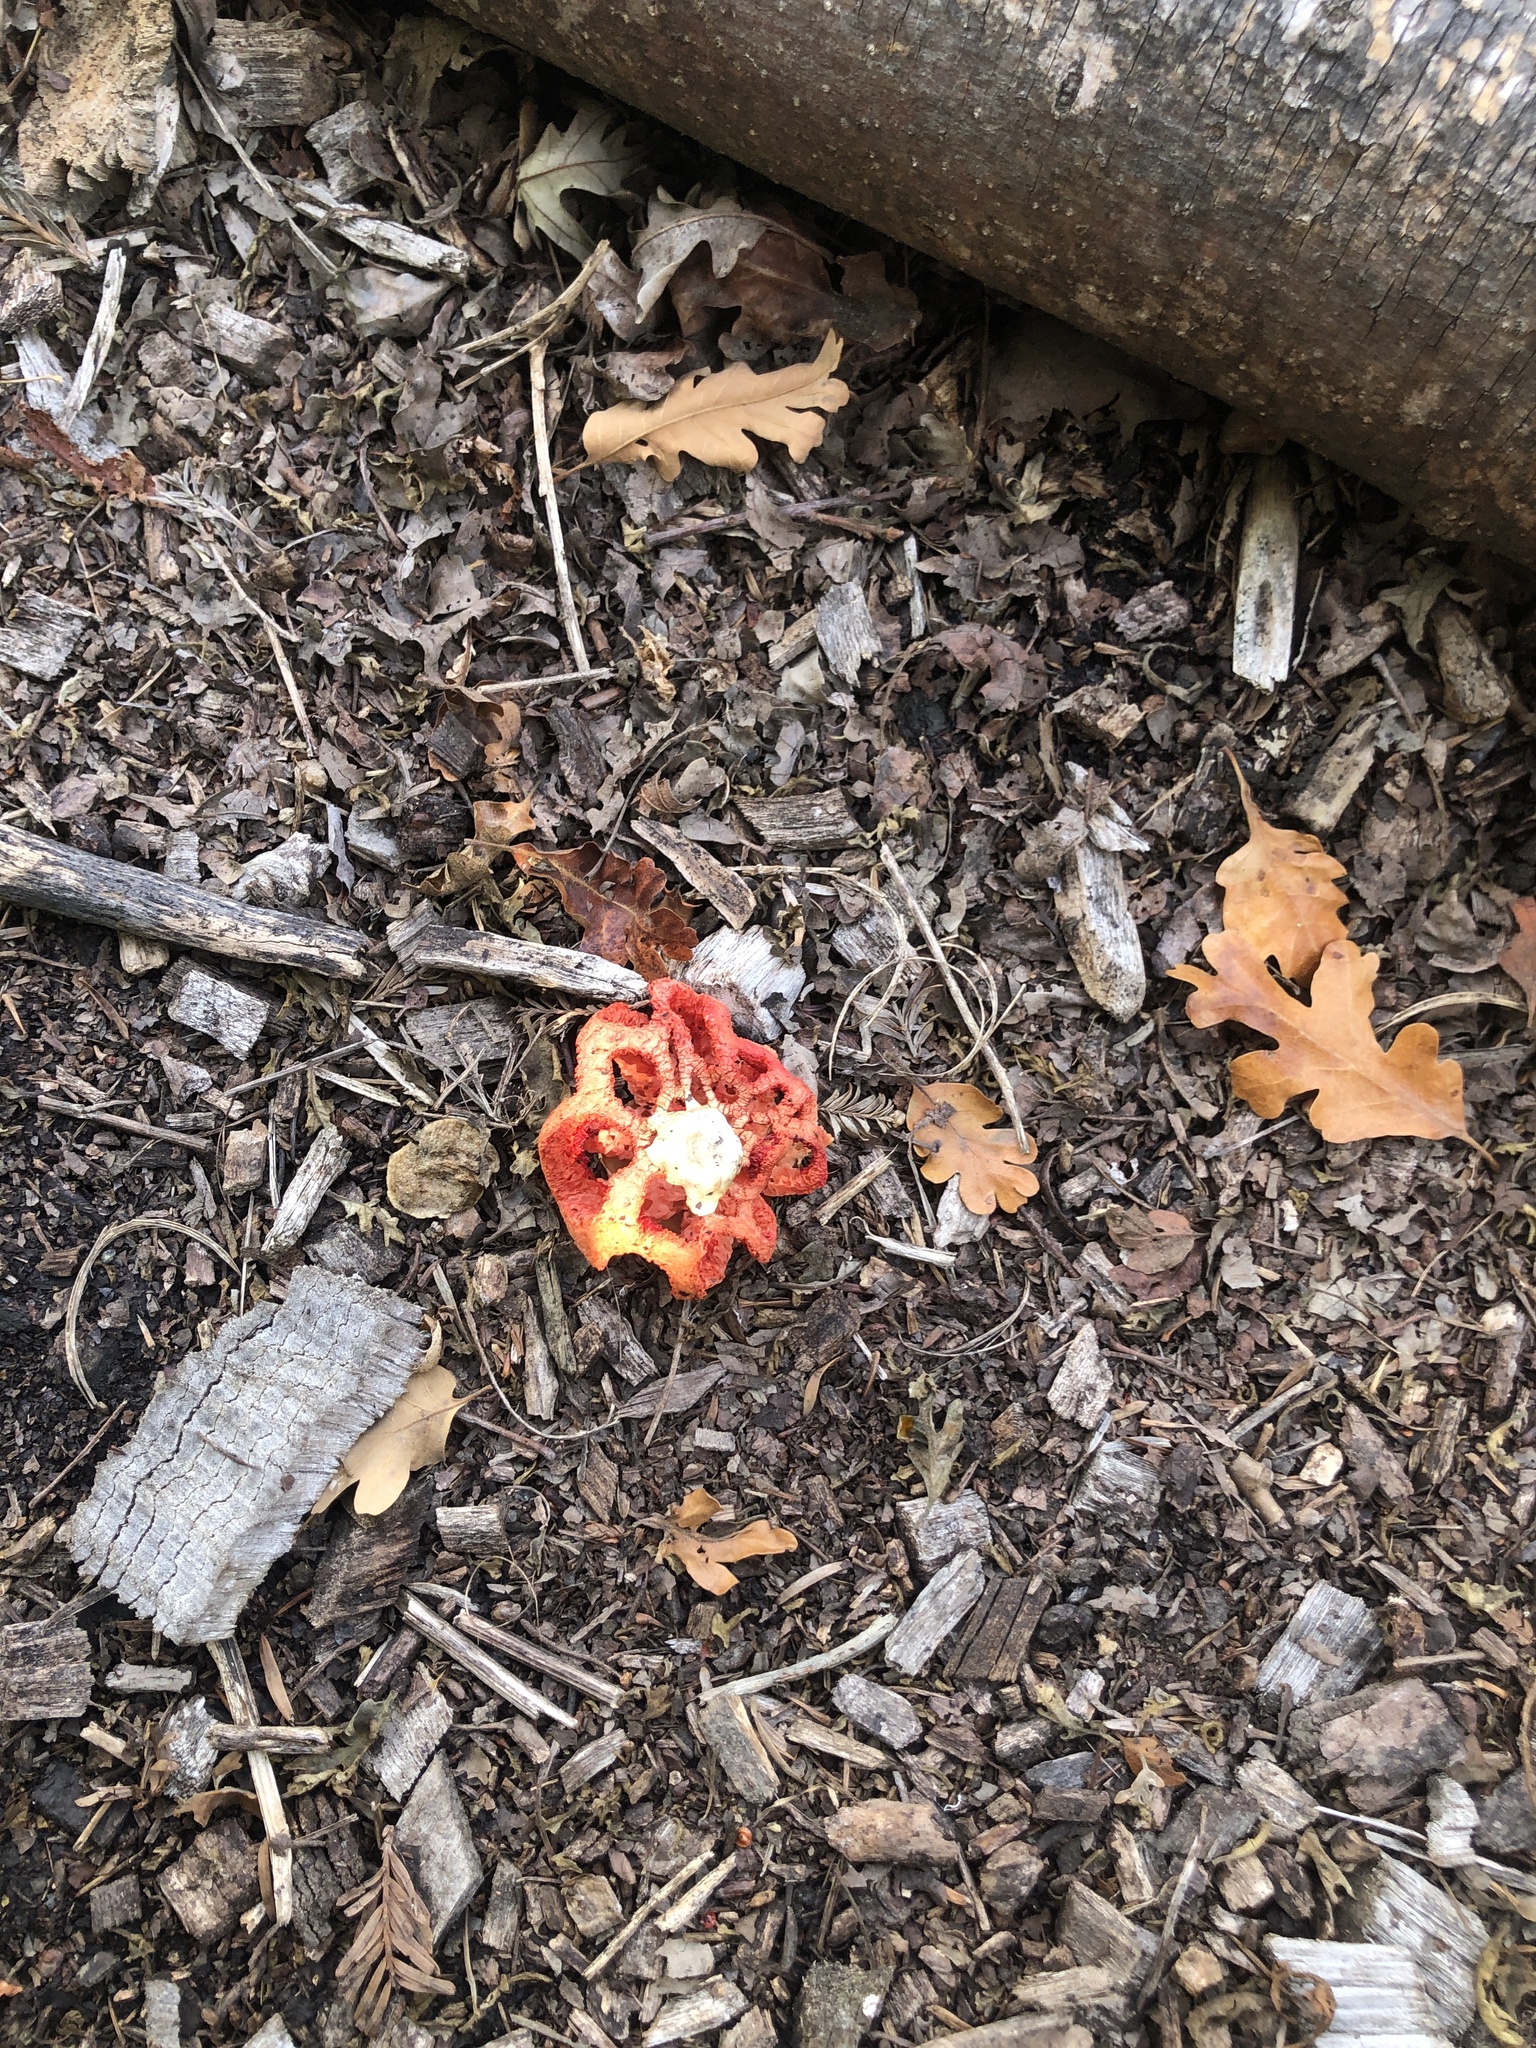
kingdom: Fungi
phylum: Basidiomycota
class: Agaricomycetes
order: Phallales
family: Phallaceae
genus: Clathrus
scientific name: Clathrus ruber
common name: Red cage
